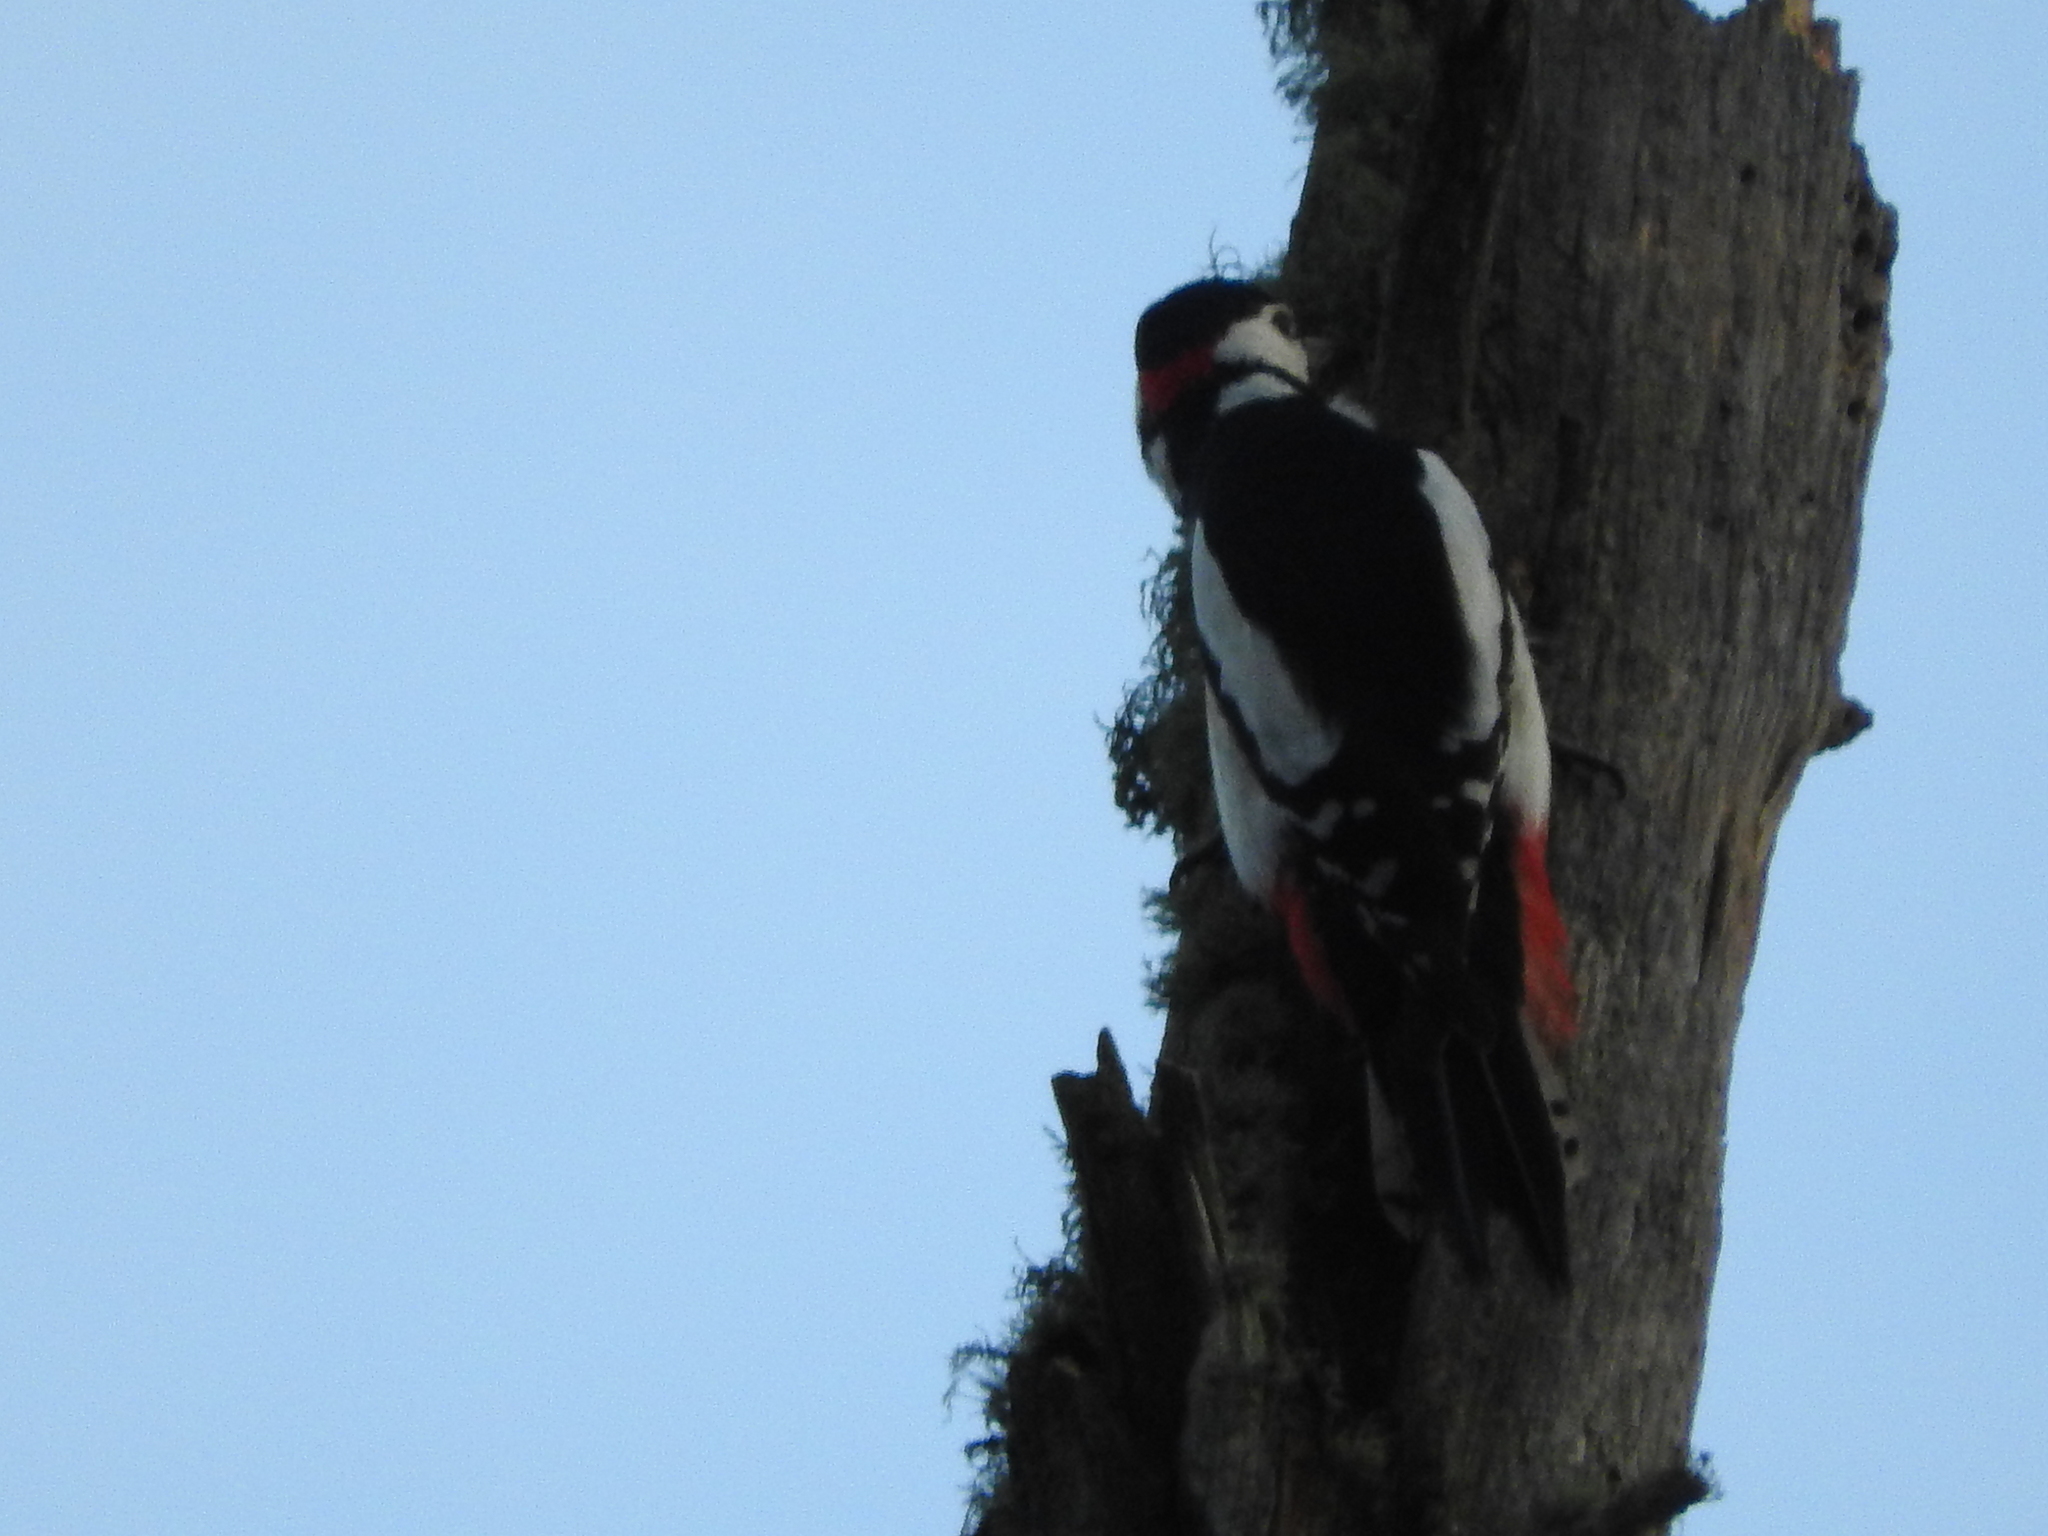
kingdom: Animalia
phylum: Chordata
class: Aves
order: Piciformes
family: Picidae
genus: Dendrocopos
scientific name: Dendrocopos major
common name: Great spotted woodpecker
